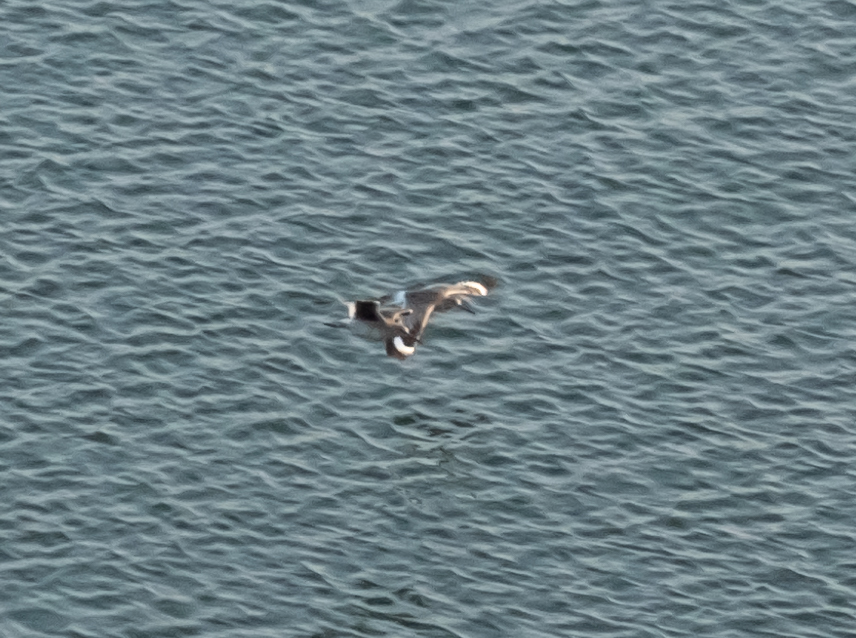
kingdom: Animalia
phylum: Chordata
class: Aves
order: Charadriiformes
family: Scolopacidae
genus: Tringa
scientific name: Tringa semipalmata
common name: Willet
